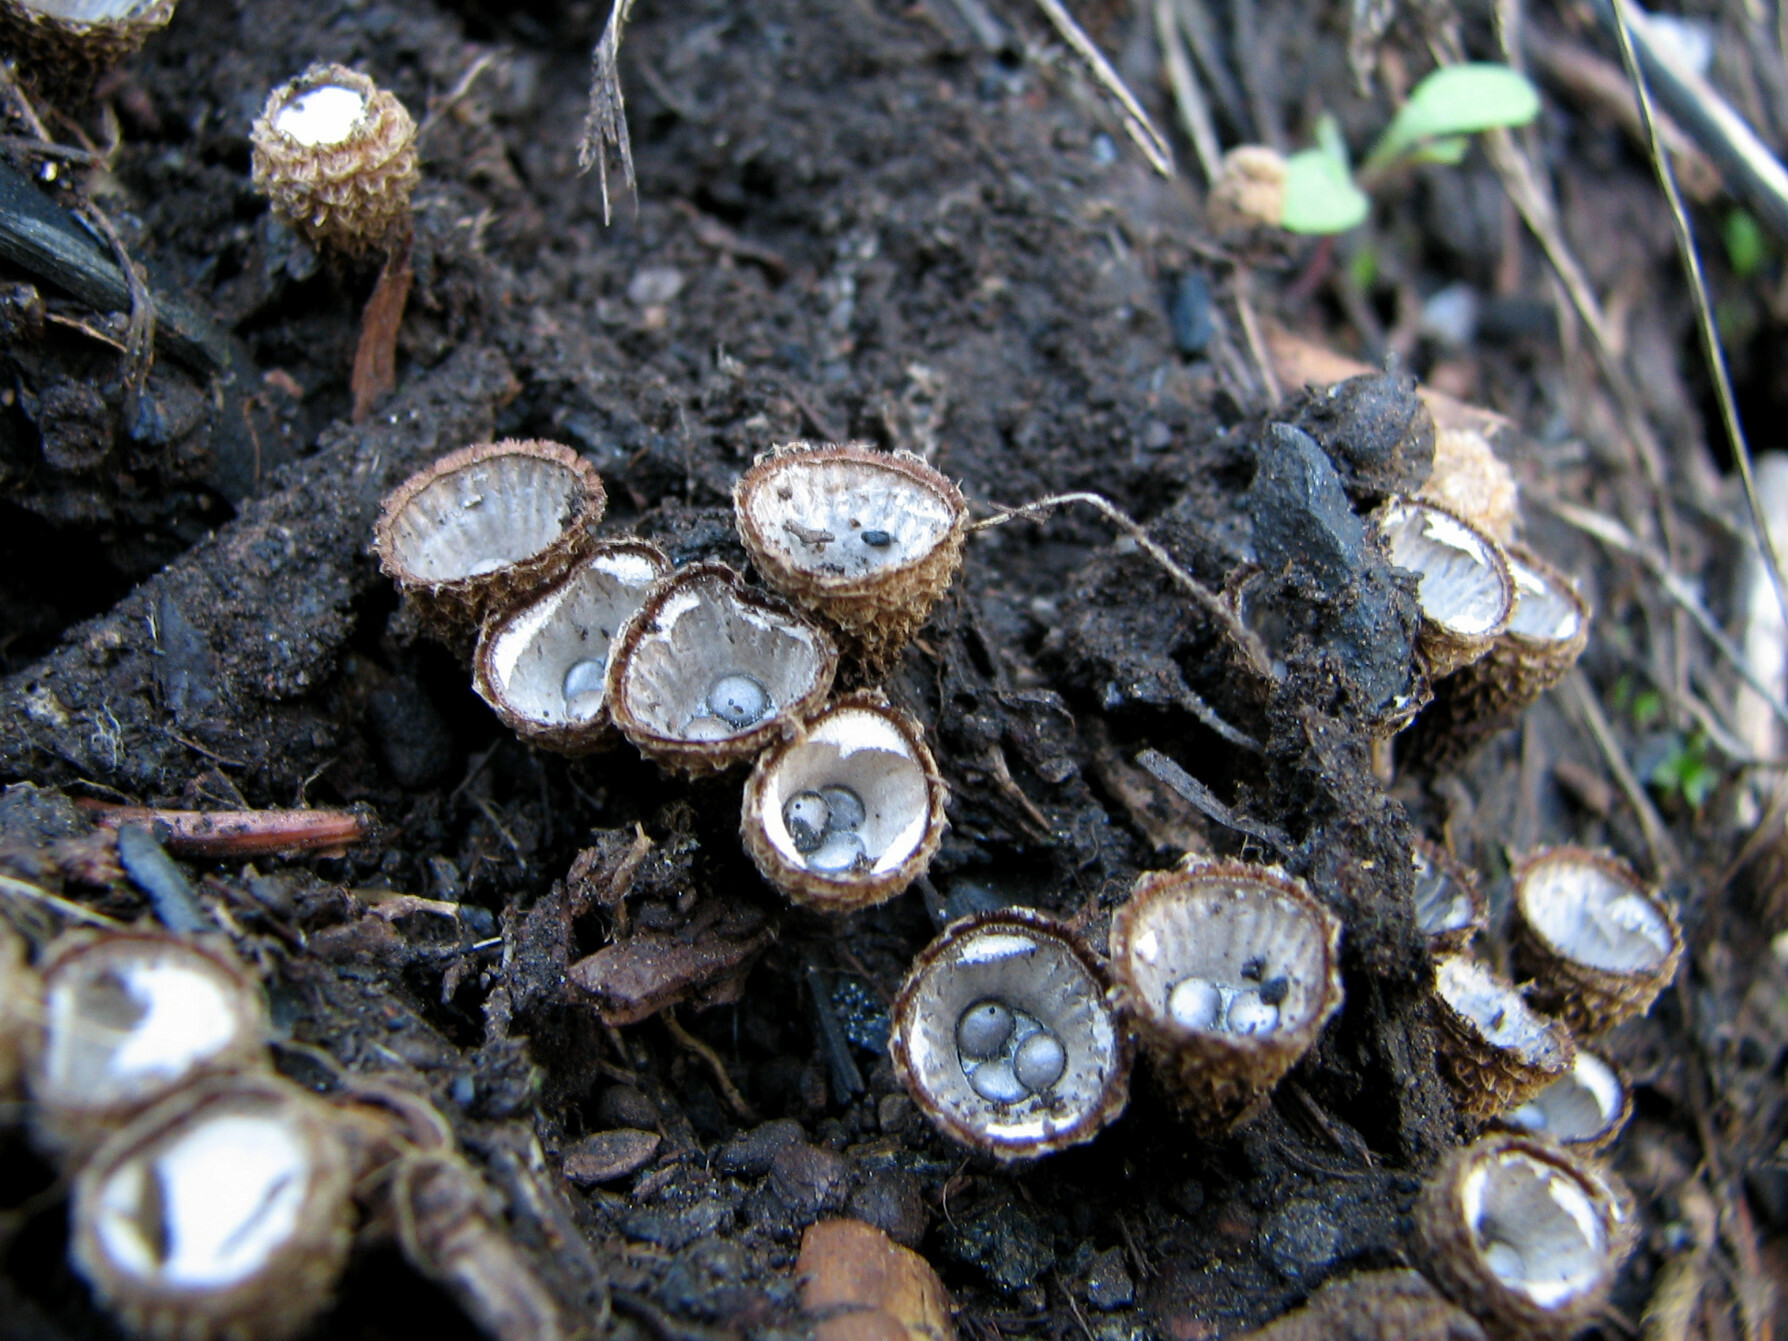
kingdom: Fungi
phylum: Basidiomycota
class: Agaricomycetes
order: Agaricales
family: Agaricaceae
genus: Cyathus
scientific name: Cyathus striatus
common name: Fluted bird's nest
